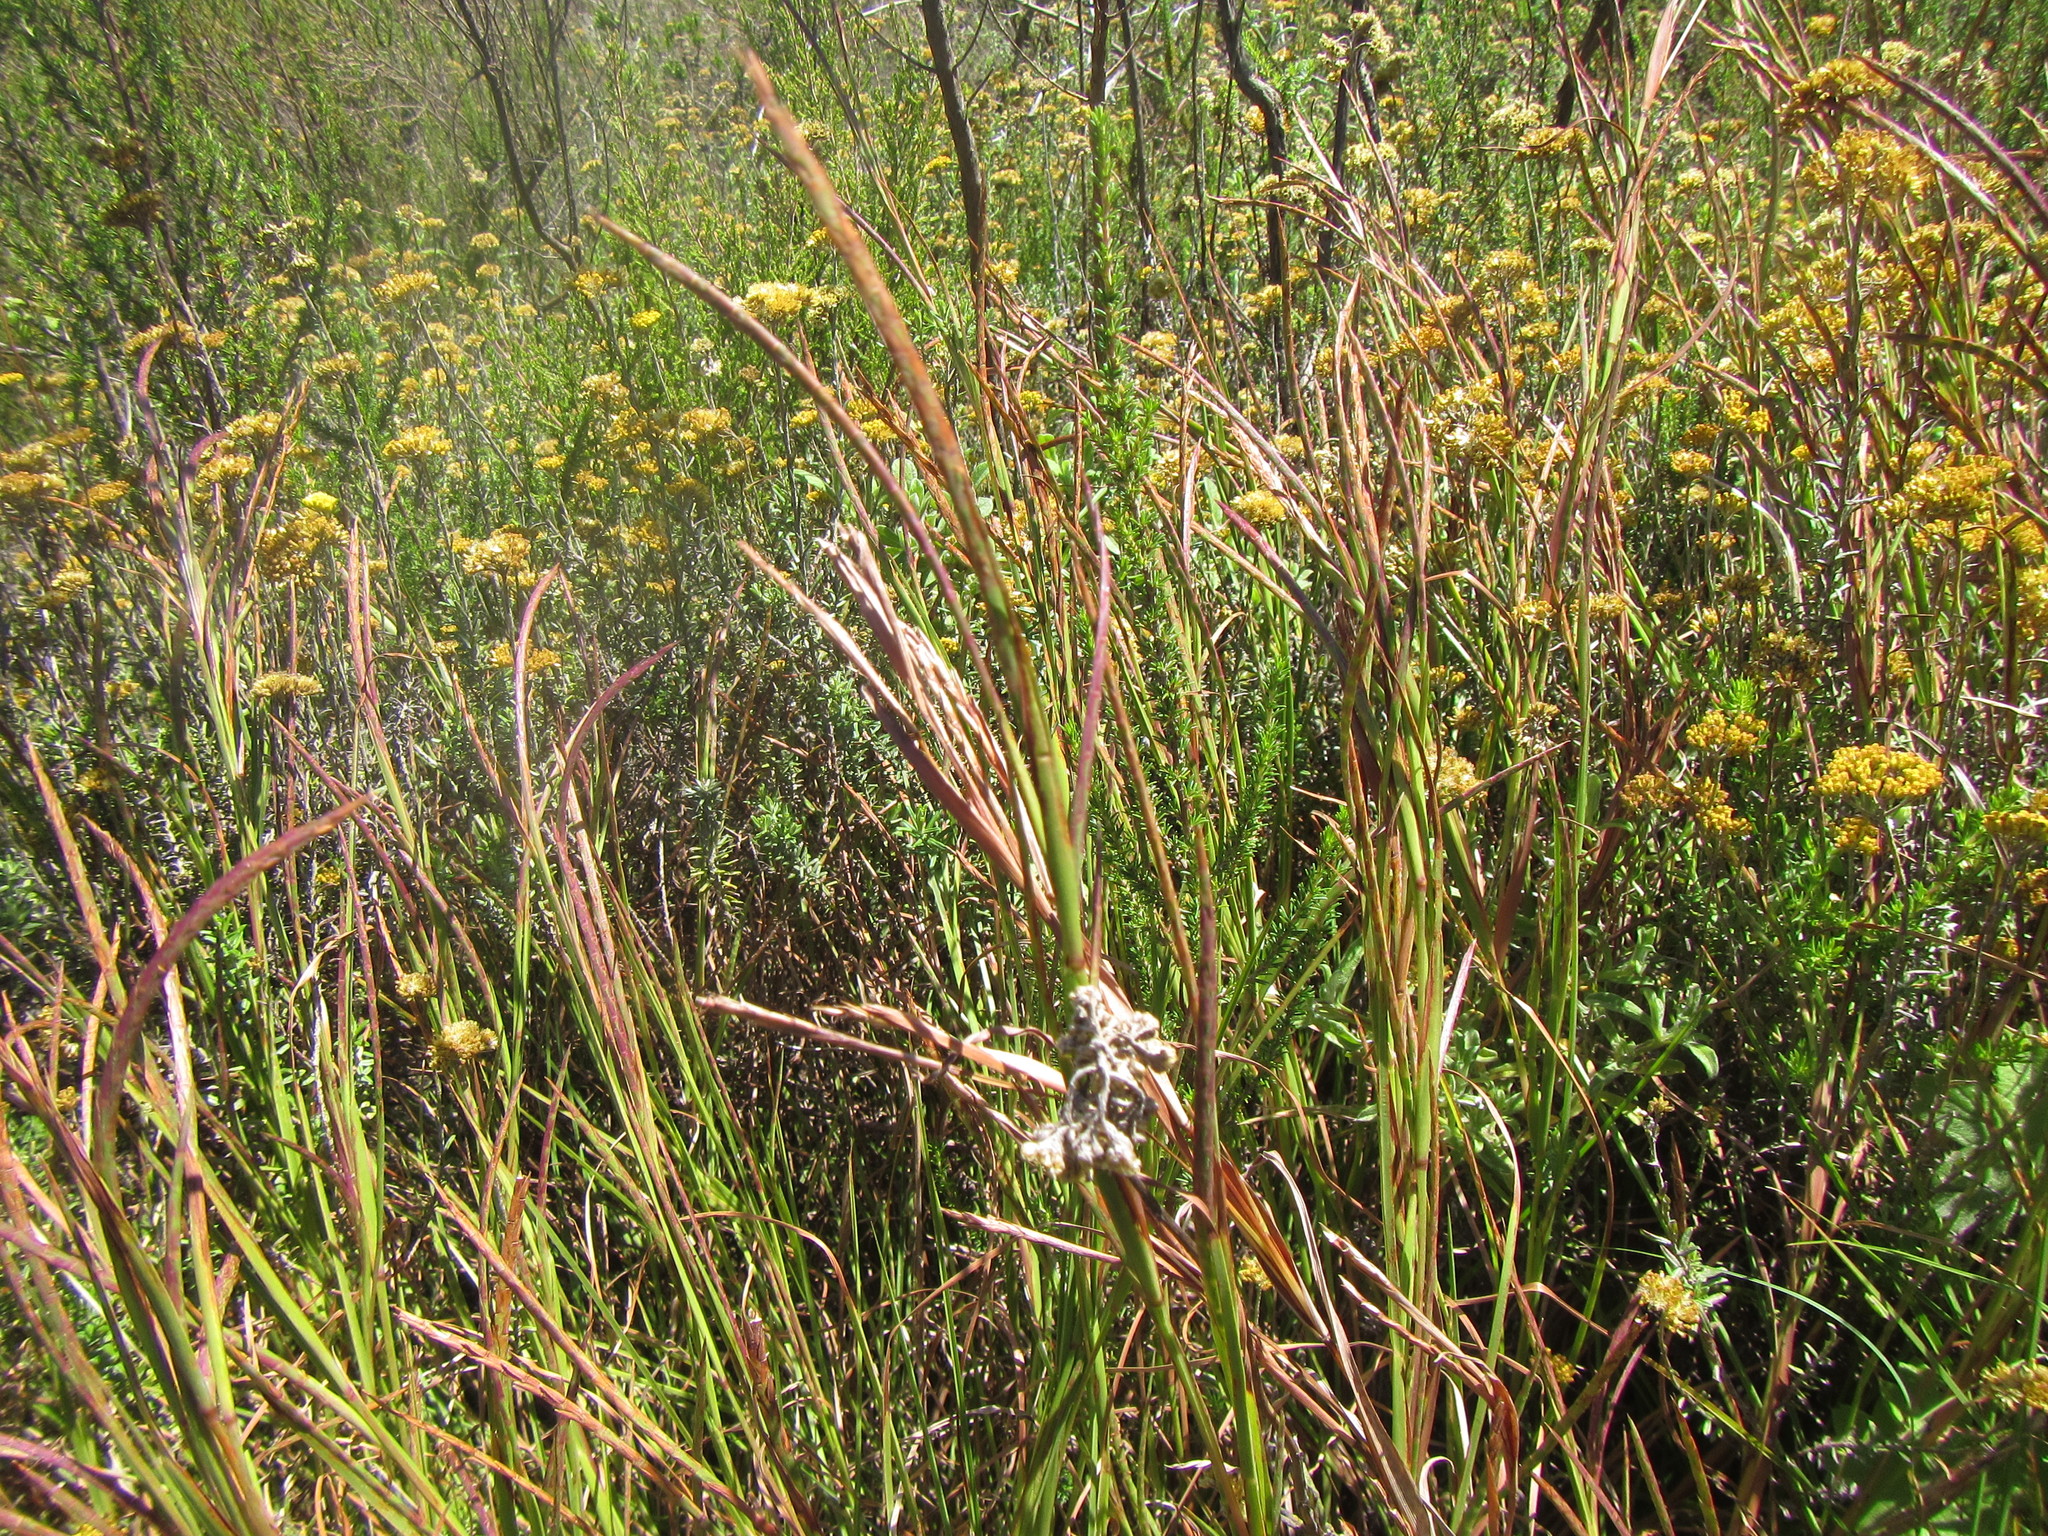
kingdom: Plantae
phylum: Tracheophyta
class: Liliopsida
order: Poales
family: Poaceae
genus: Hemarthria
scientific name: Hemarthria altissima
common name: African jointgrass
